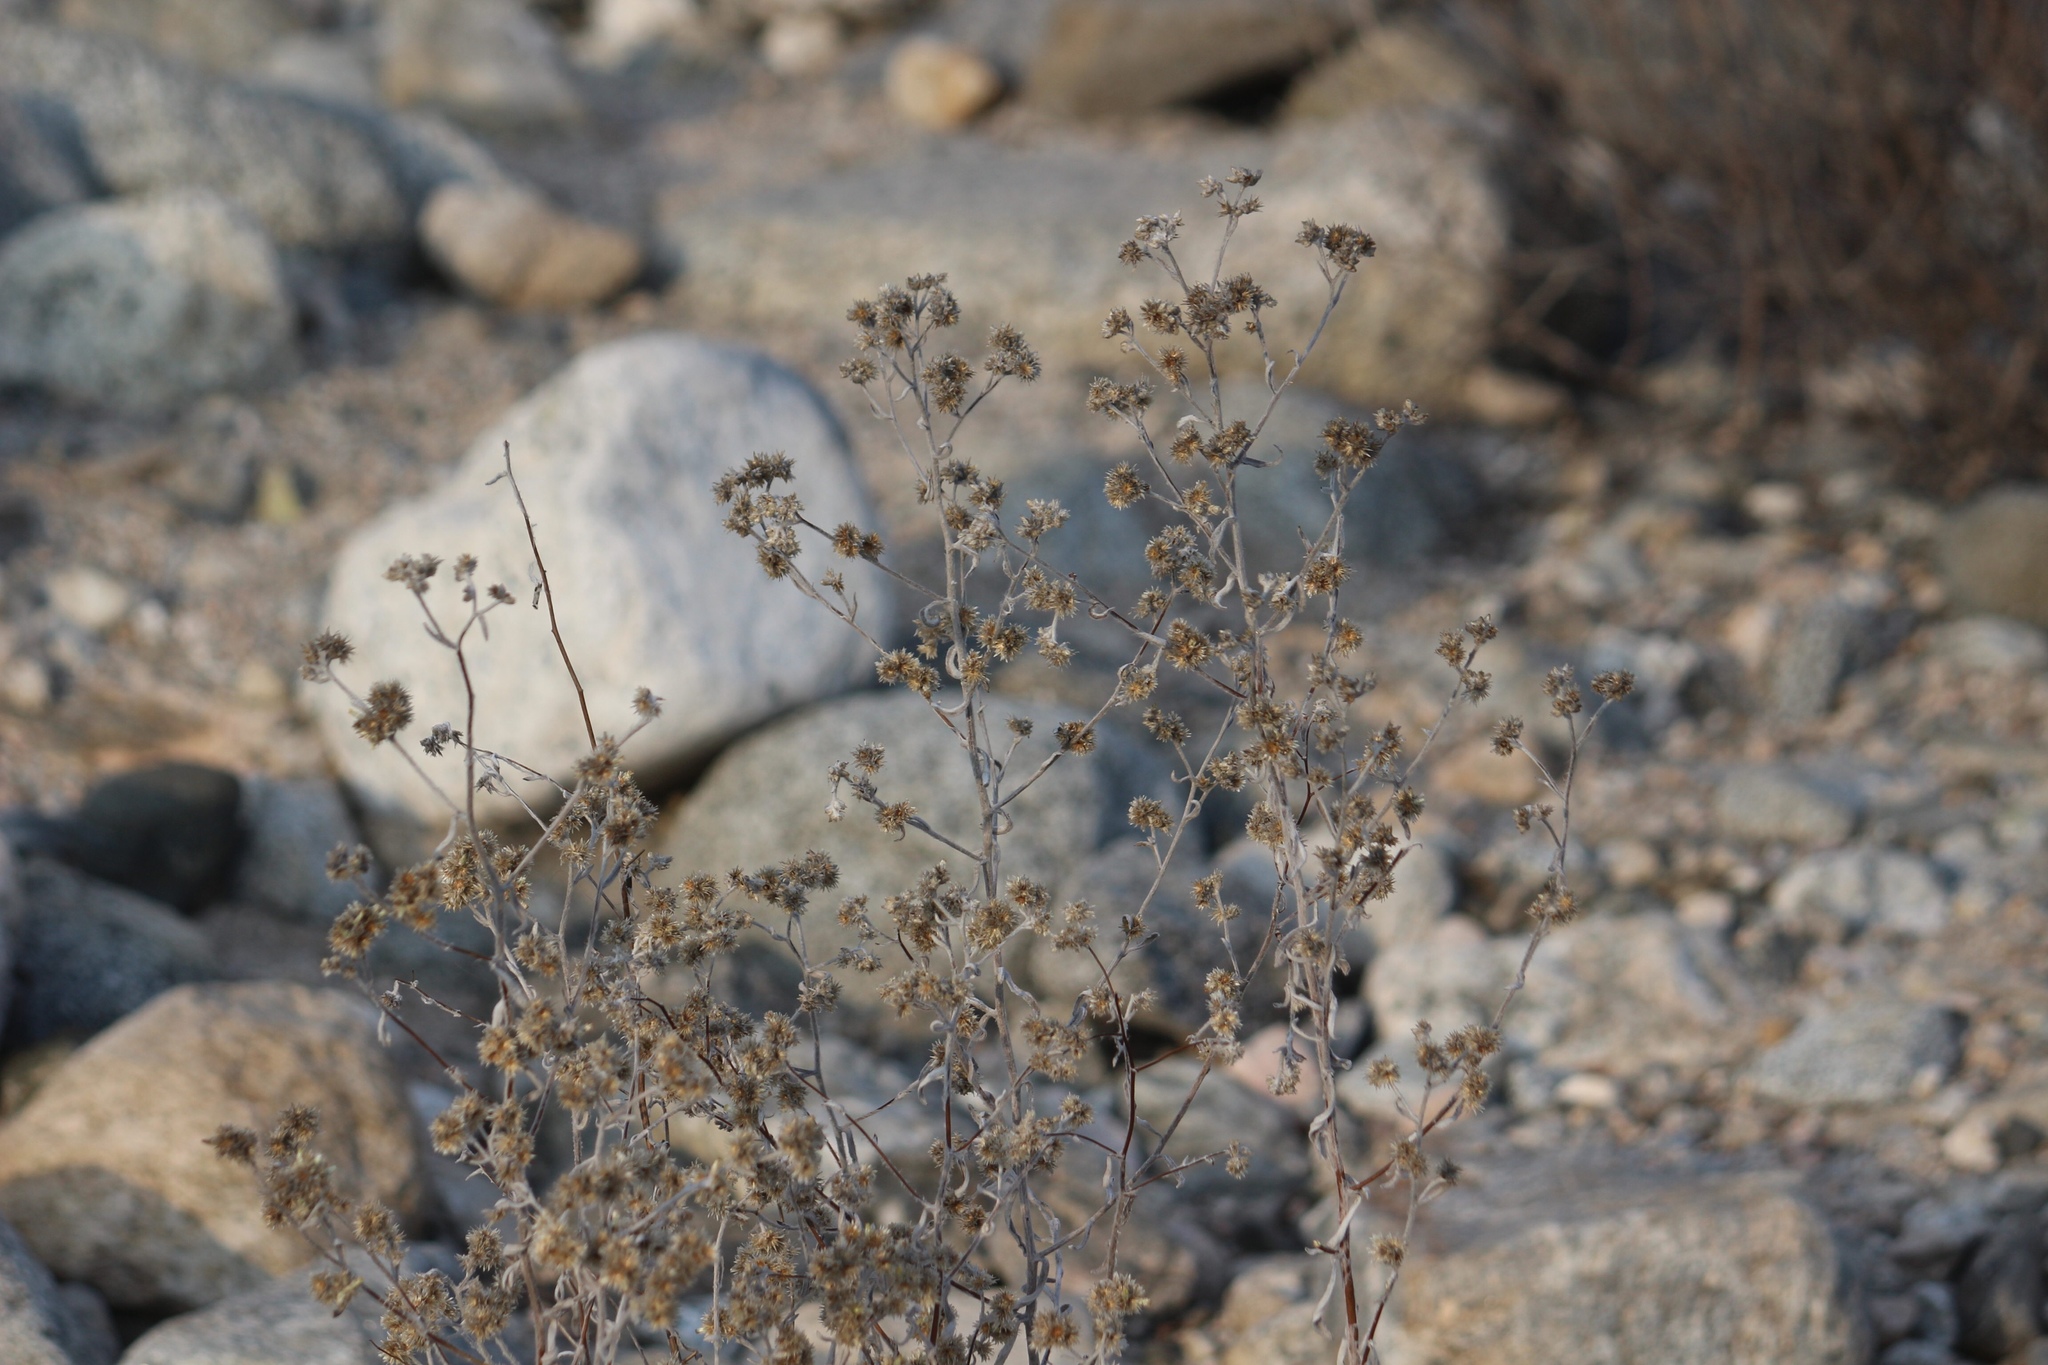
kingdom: Plantae
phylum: Tracheophyta
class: Magnoliopsida
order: Asterales
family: Asteraceae
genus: Pseudognaphalium
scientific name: Pseudognaphalium
